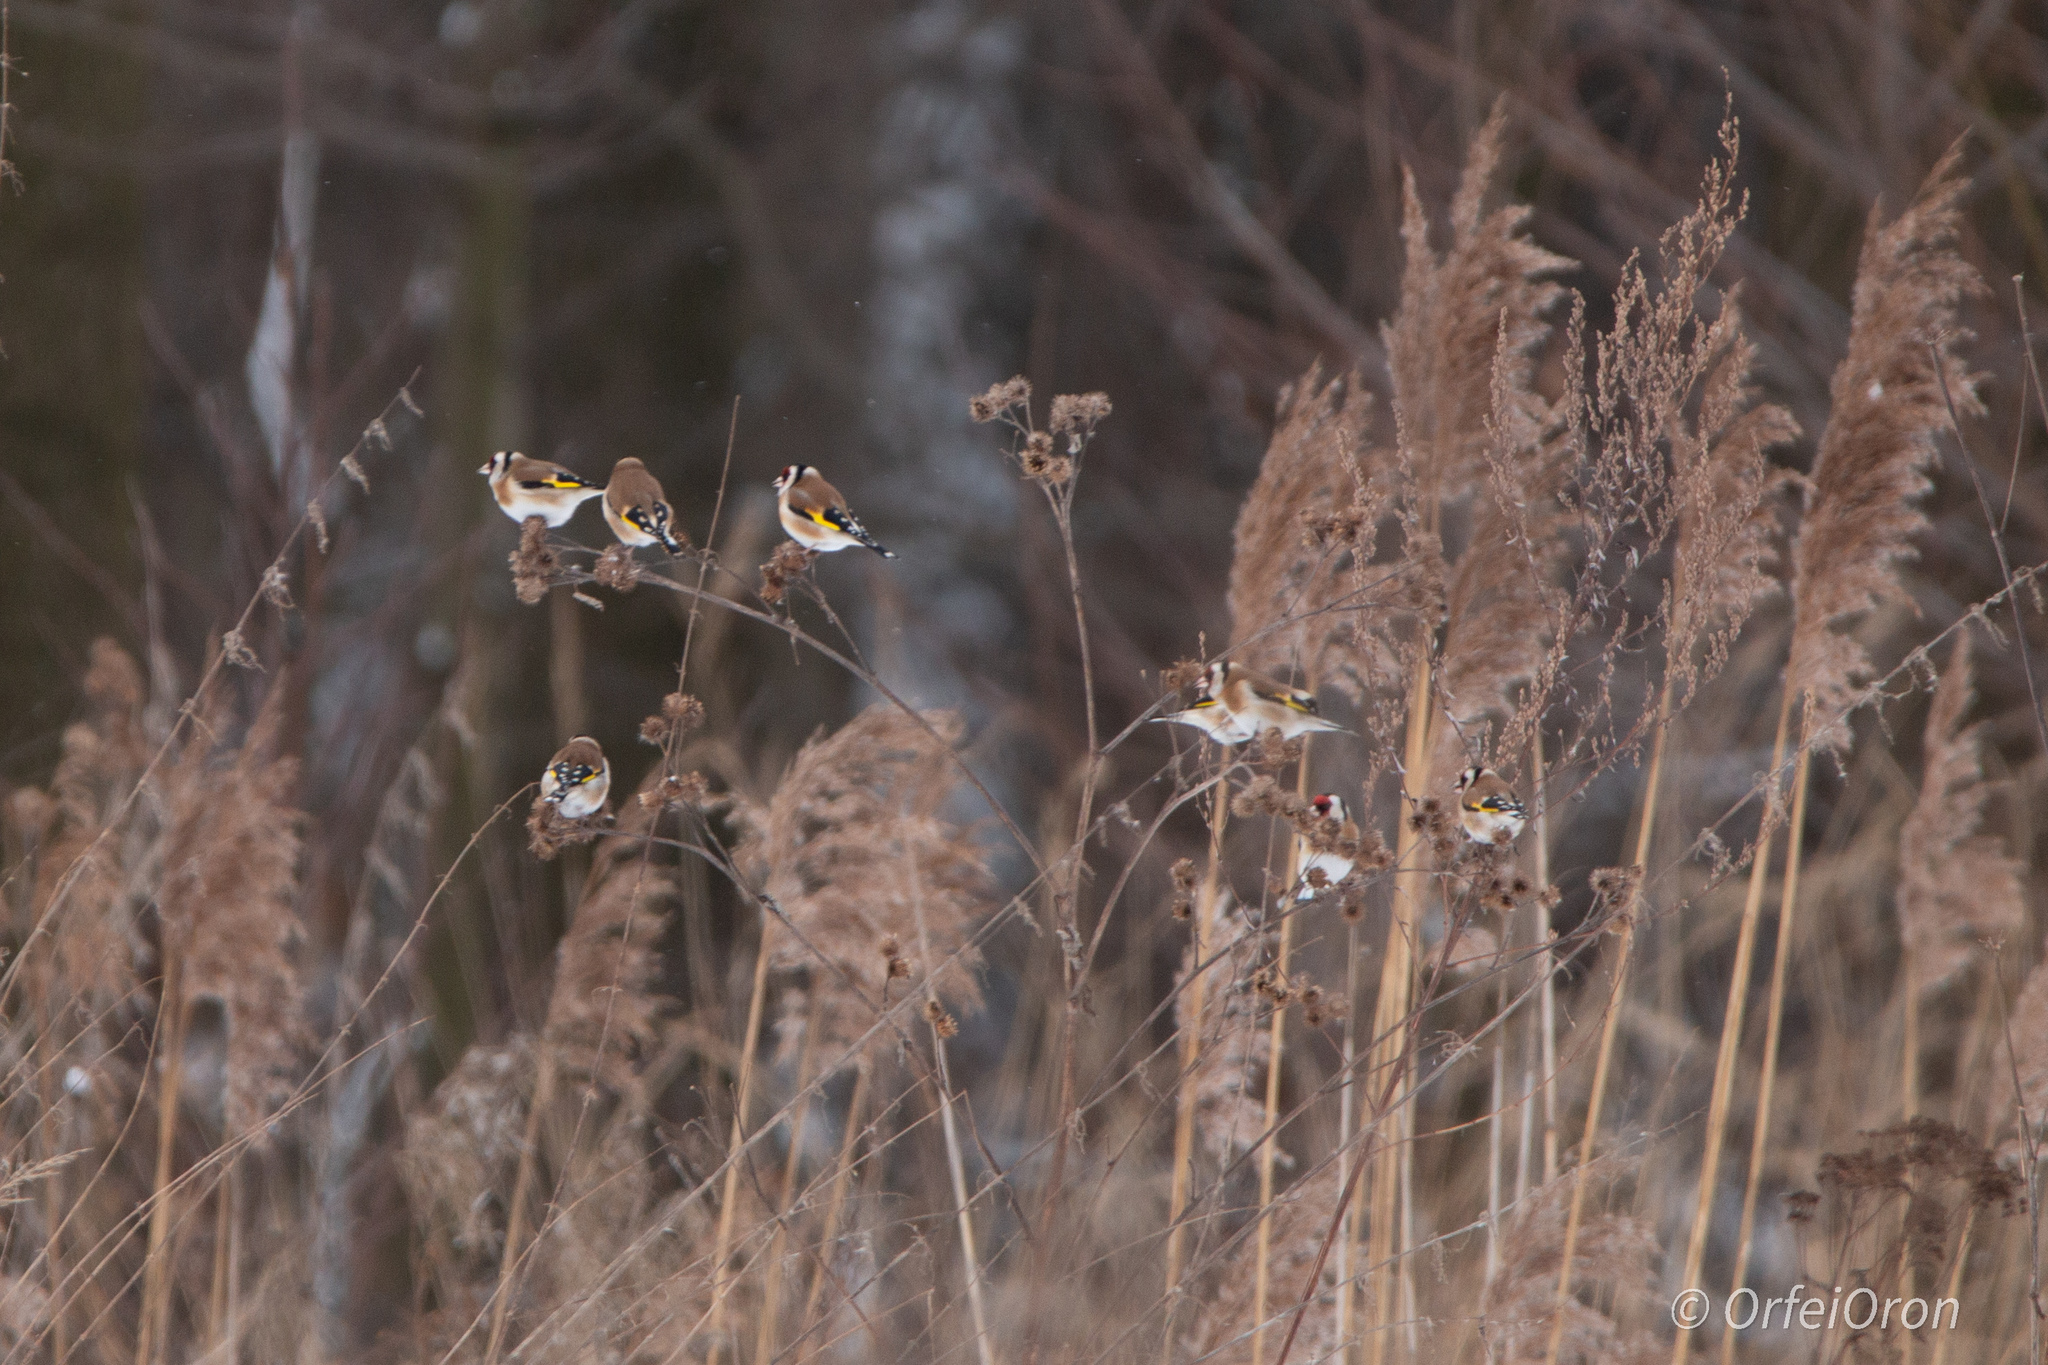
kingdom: Animalia
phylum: Chordata
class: Aves
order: Passeriformes
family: Fringillidae
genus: Carduelis
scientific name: Carduelis carduelis
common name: European goldfinch
